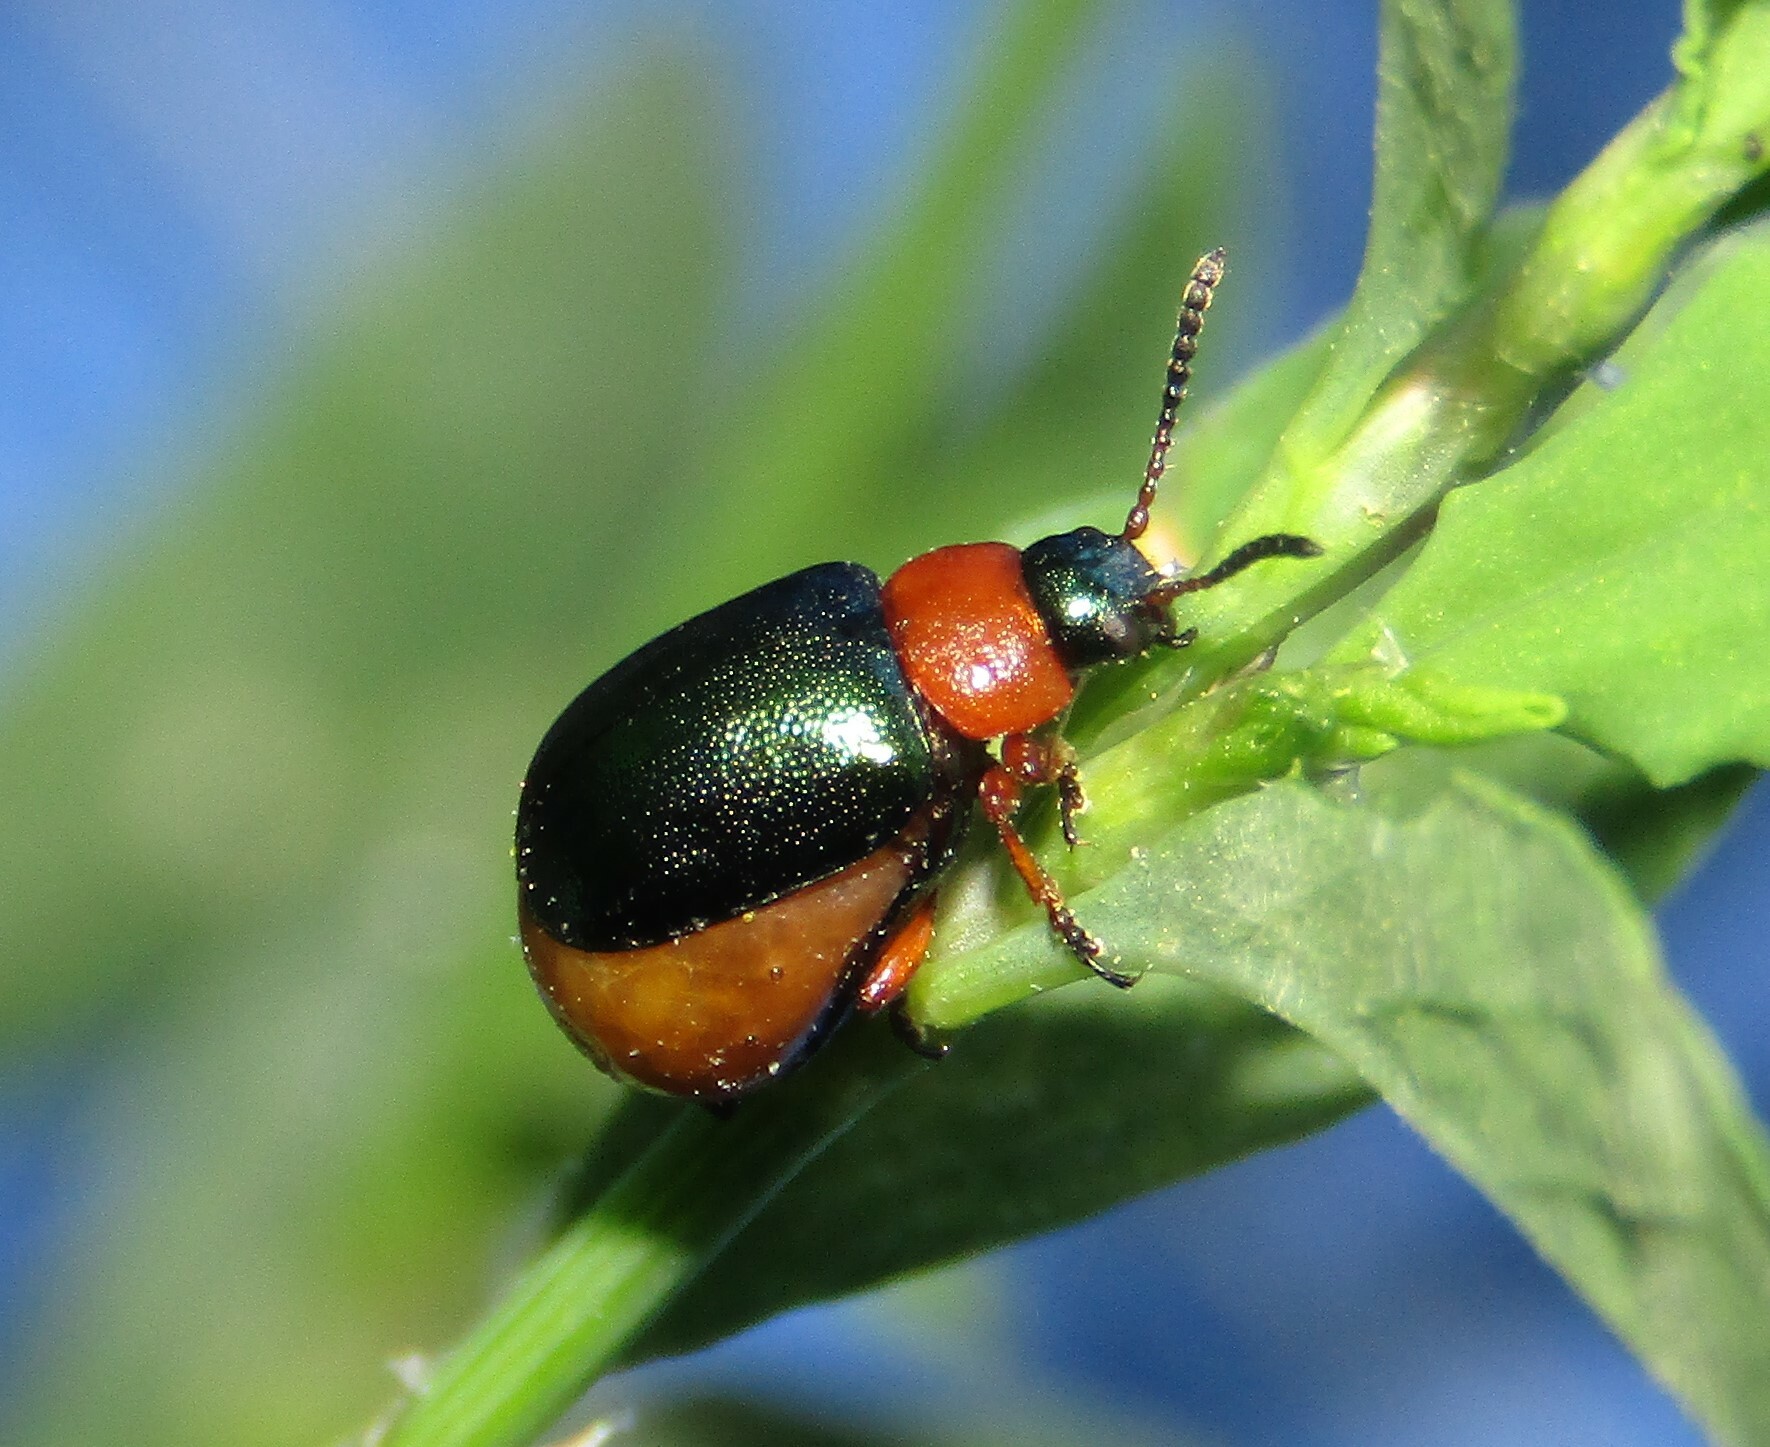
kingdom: Animalia
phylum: Arthropoda
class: Insecta
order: Coleoptera
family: Chrysomelidae
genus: Gastrophysa
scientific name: Gastrophysa polygoni
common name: Knotweed leaf beetle
